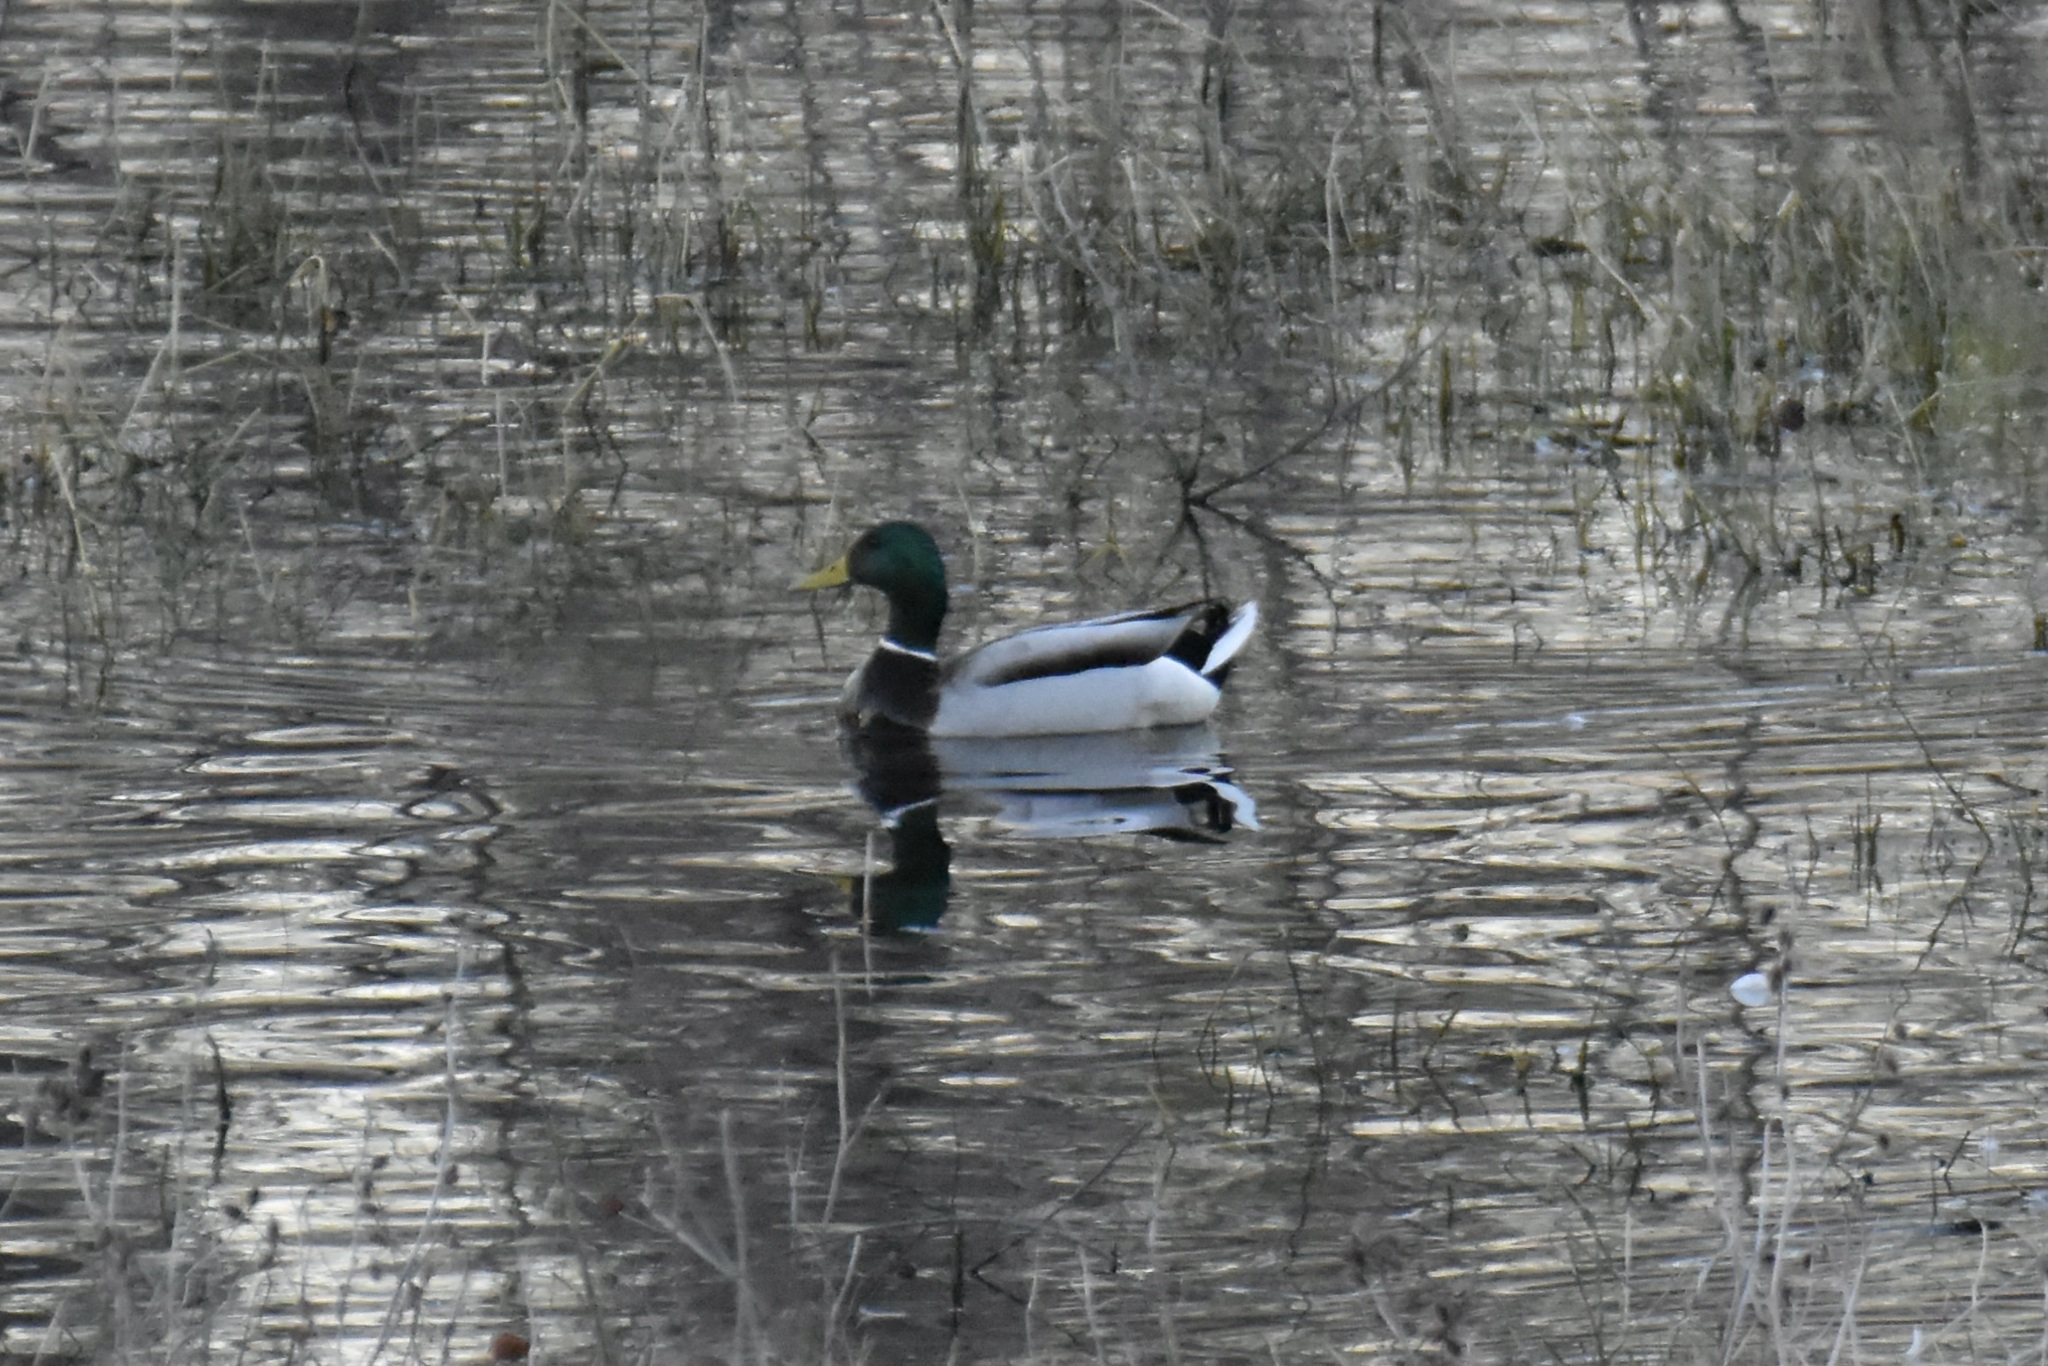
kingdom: Animalia
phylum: Chordata
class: Aves
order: Anseriformes
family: Anatidae
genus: Anas
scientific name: Anas platyrhynchos
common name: Mallard
